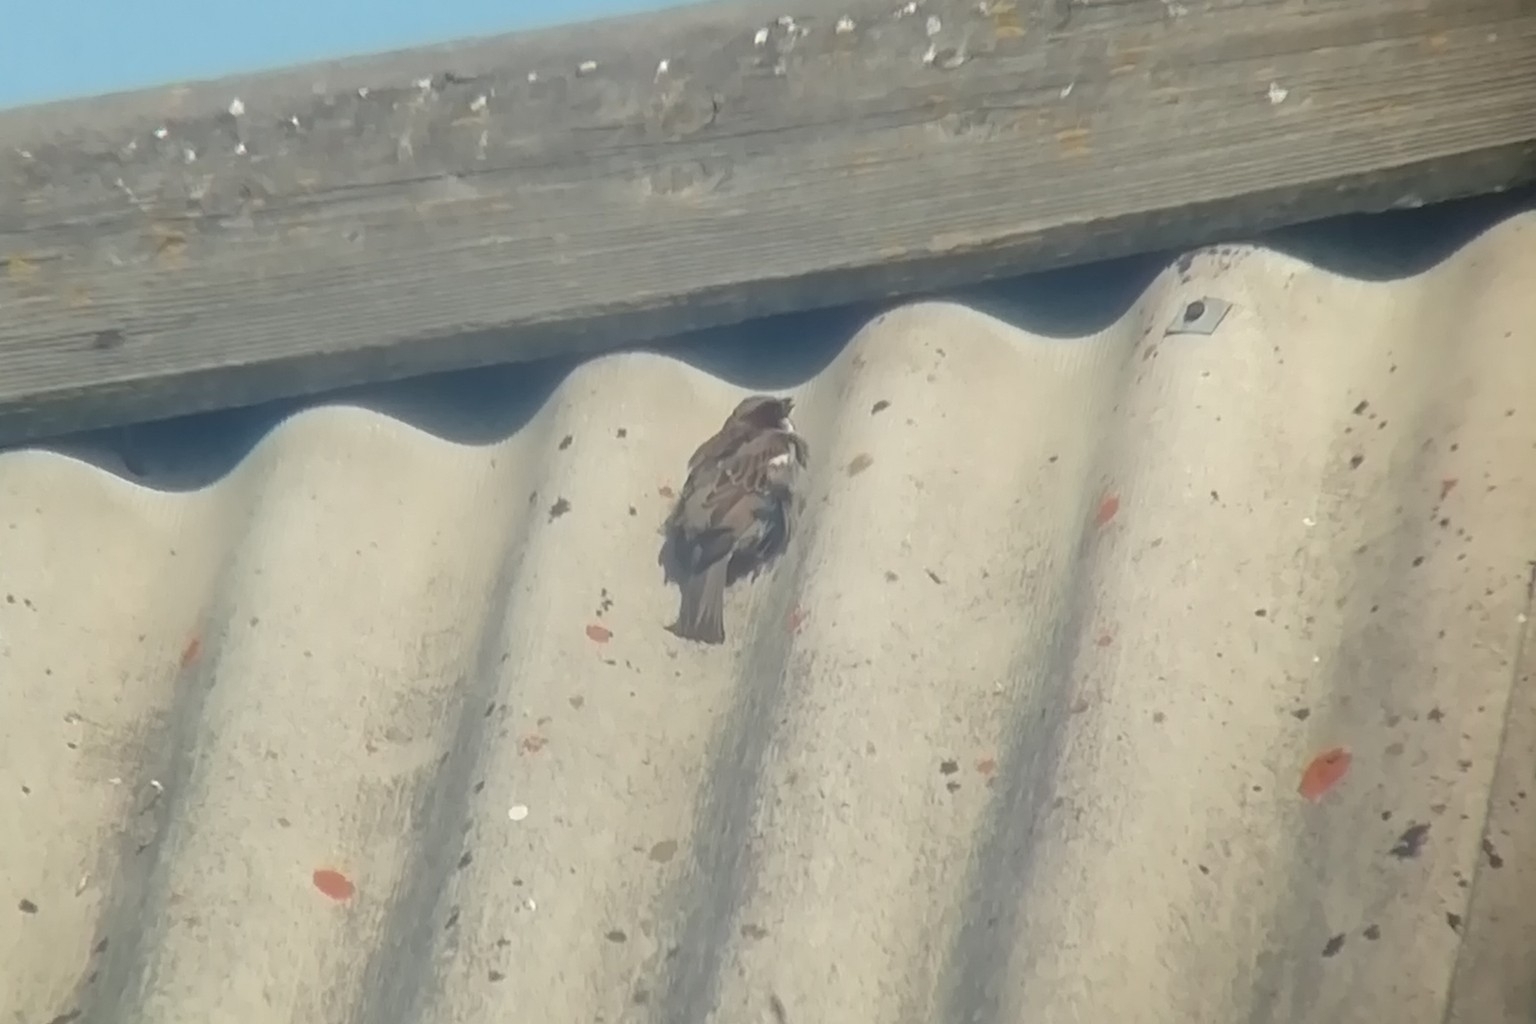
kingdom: Animalia
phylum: Chordata
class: Aves
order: Passeriformes
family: Passeridae
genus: Passer
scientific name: Passer domesticus
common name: House sparrow
